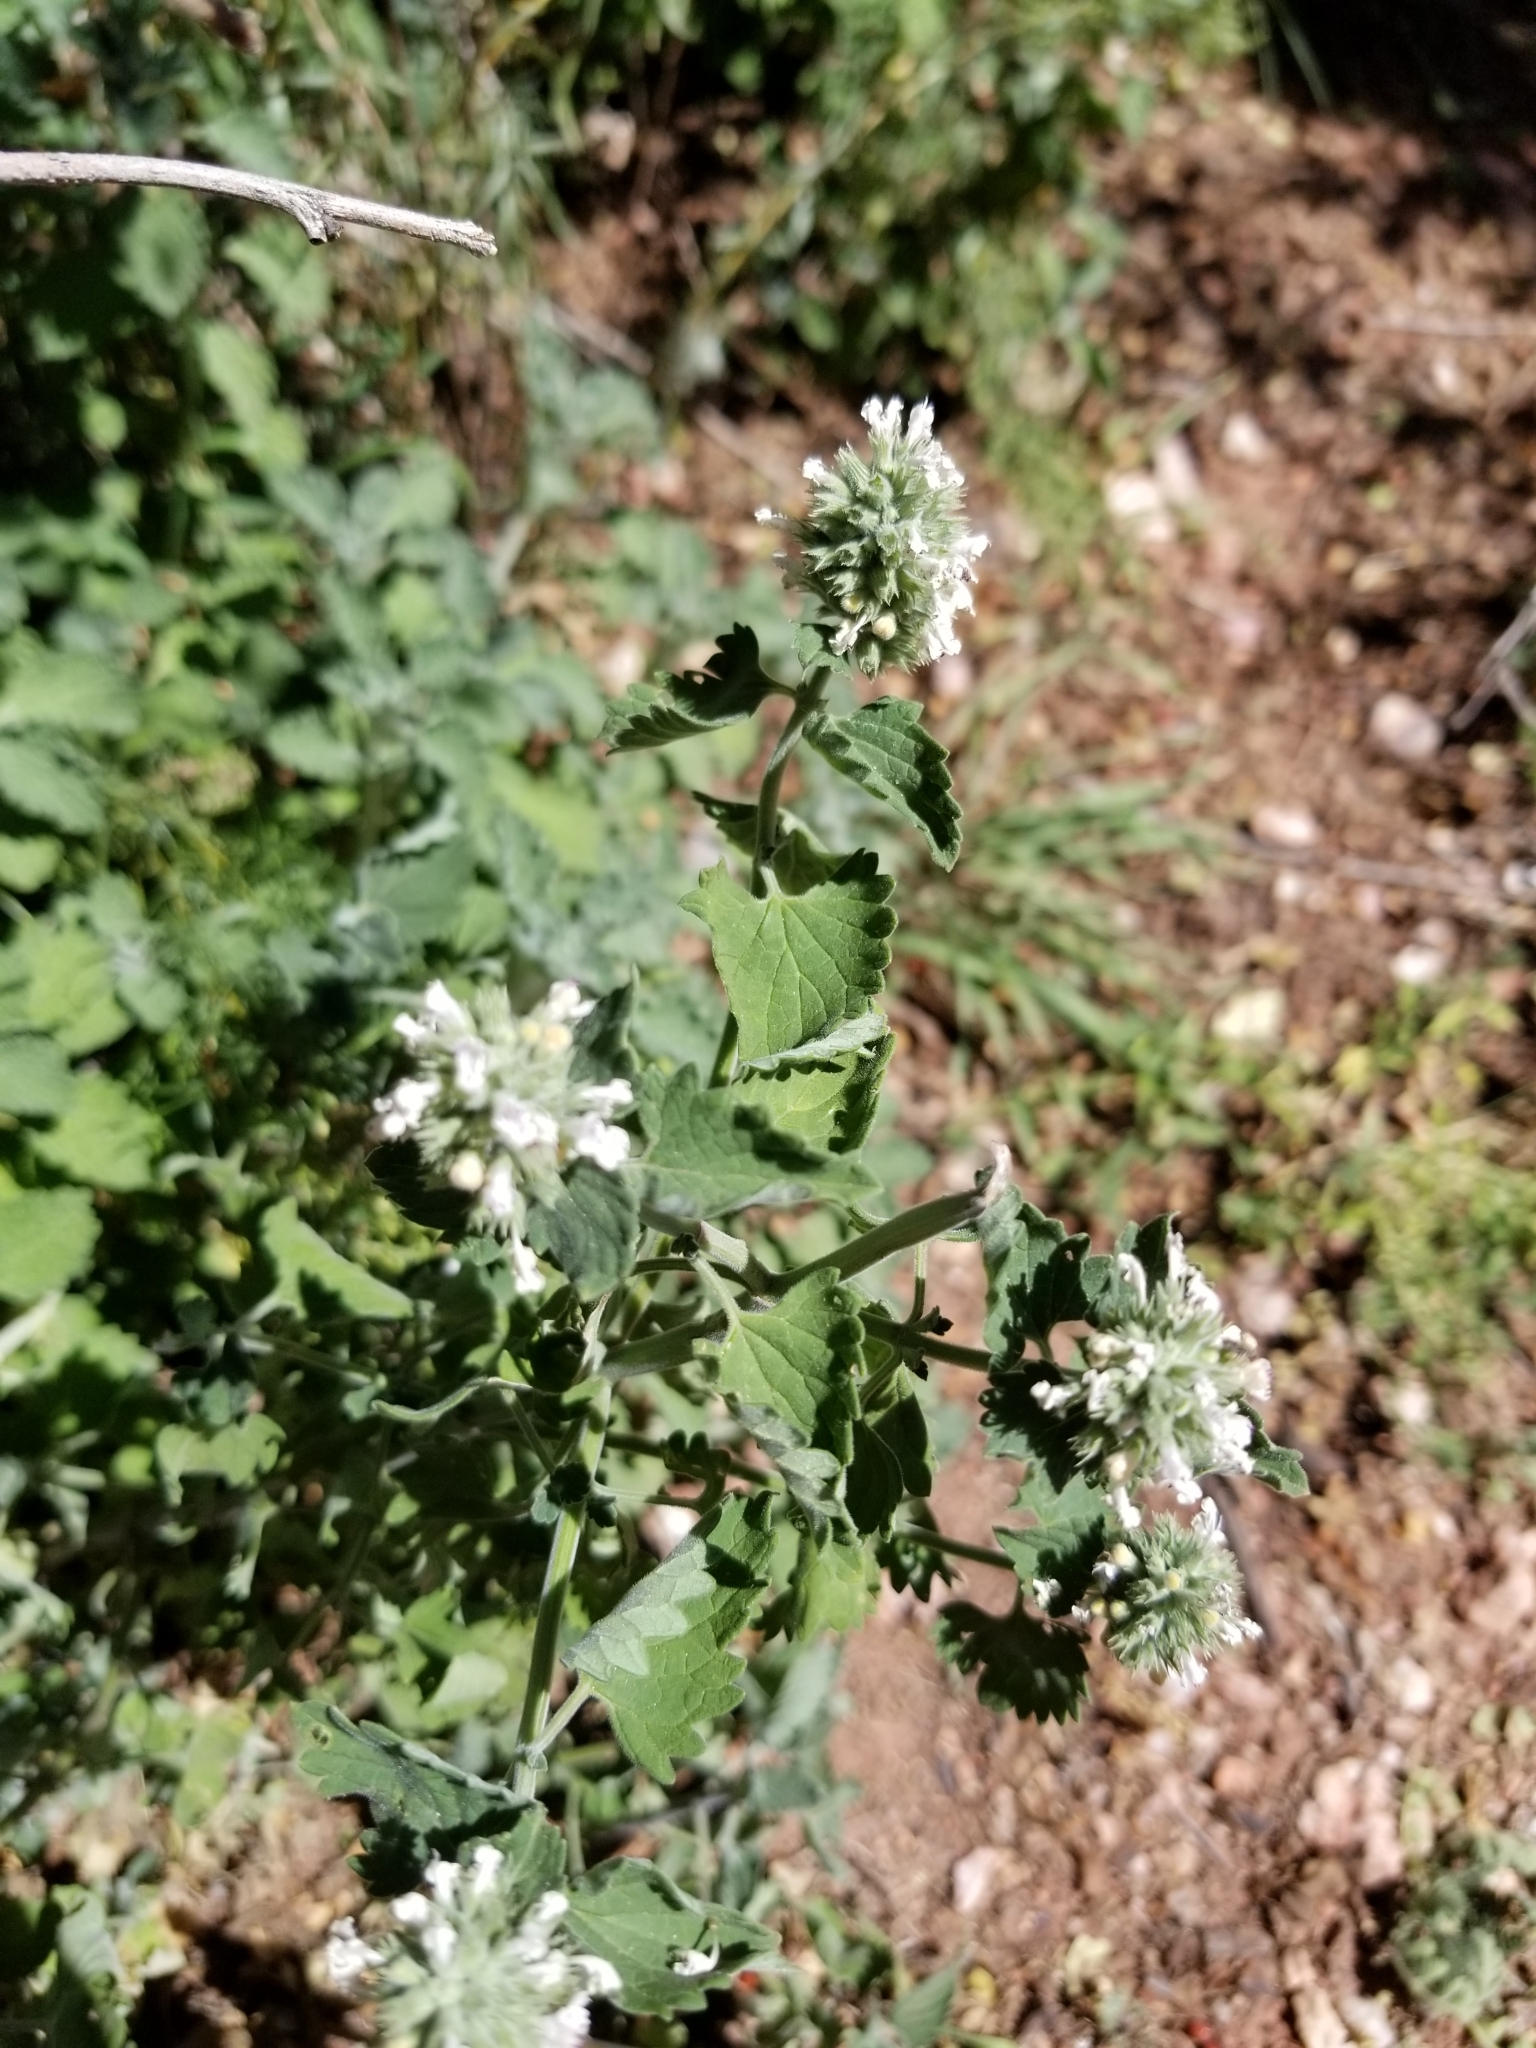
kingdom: Plantae
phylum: Tracheophyta
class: Magnoliopsida
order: Lamiales
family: Lamiaceae
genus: Nepeta
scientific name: Nepeta cataria
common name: Catnip
